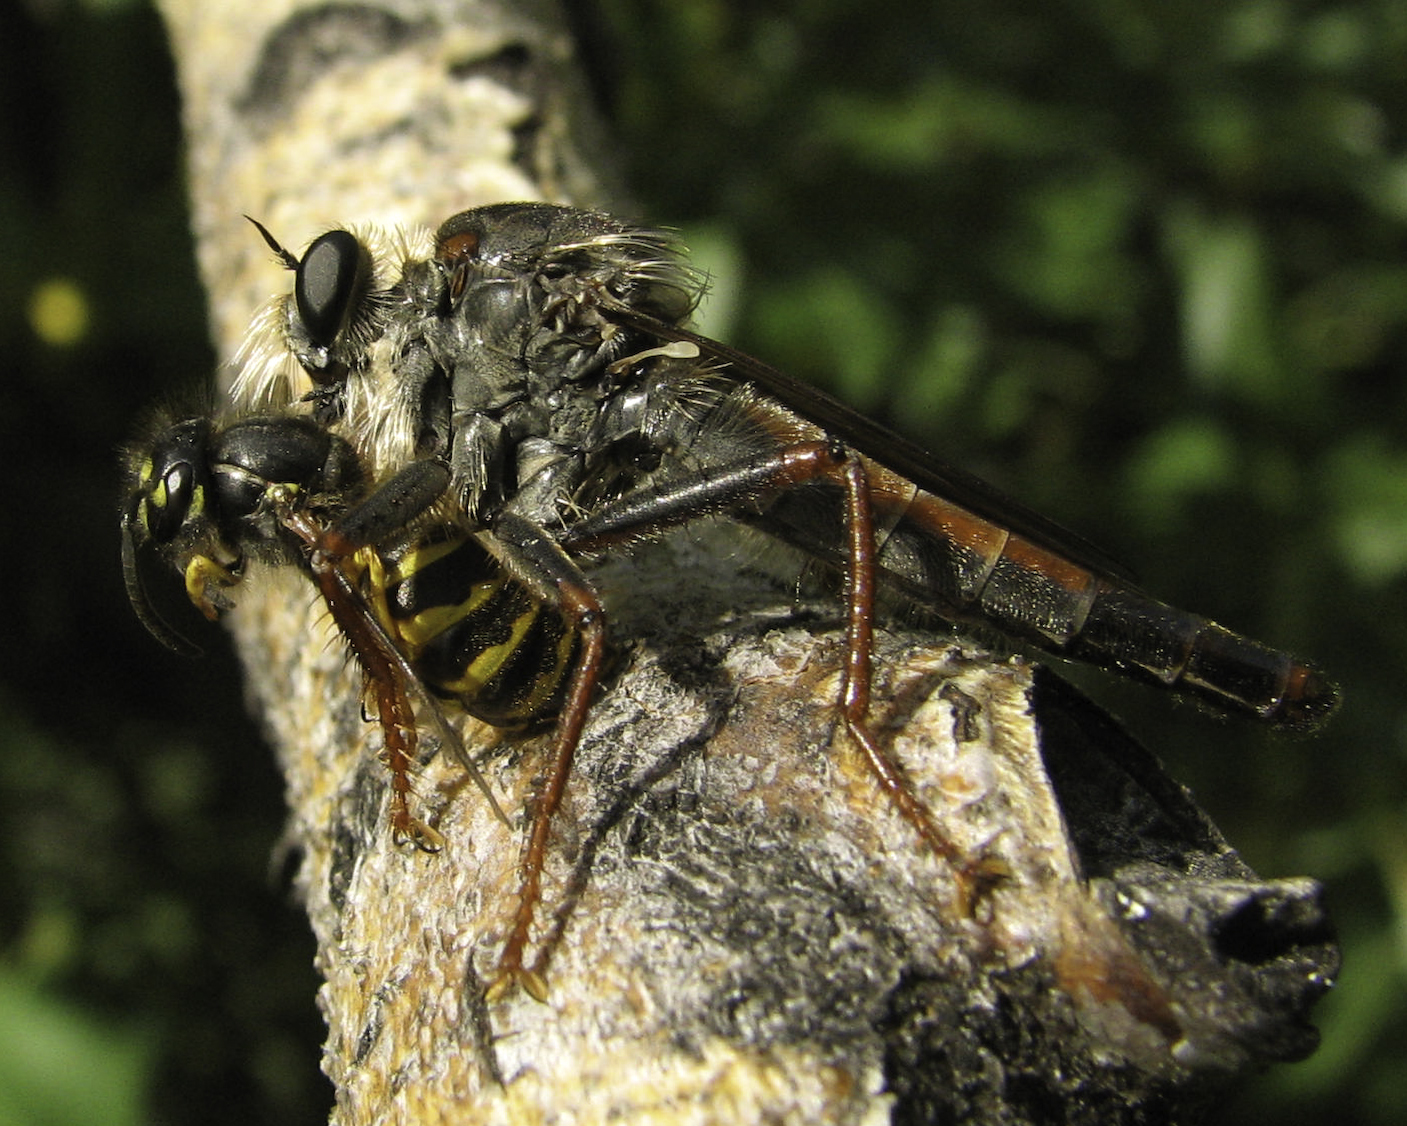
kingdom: Animalia
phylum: Arthropoda
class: Insecta
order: Diptera
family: Asilidae
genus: Stenopogon
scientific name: Stenopogon inquinatus
